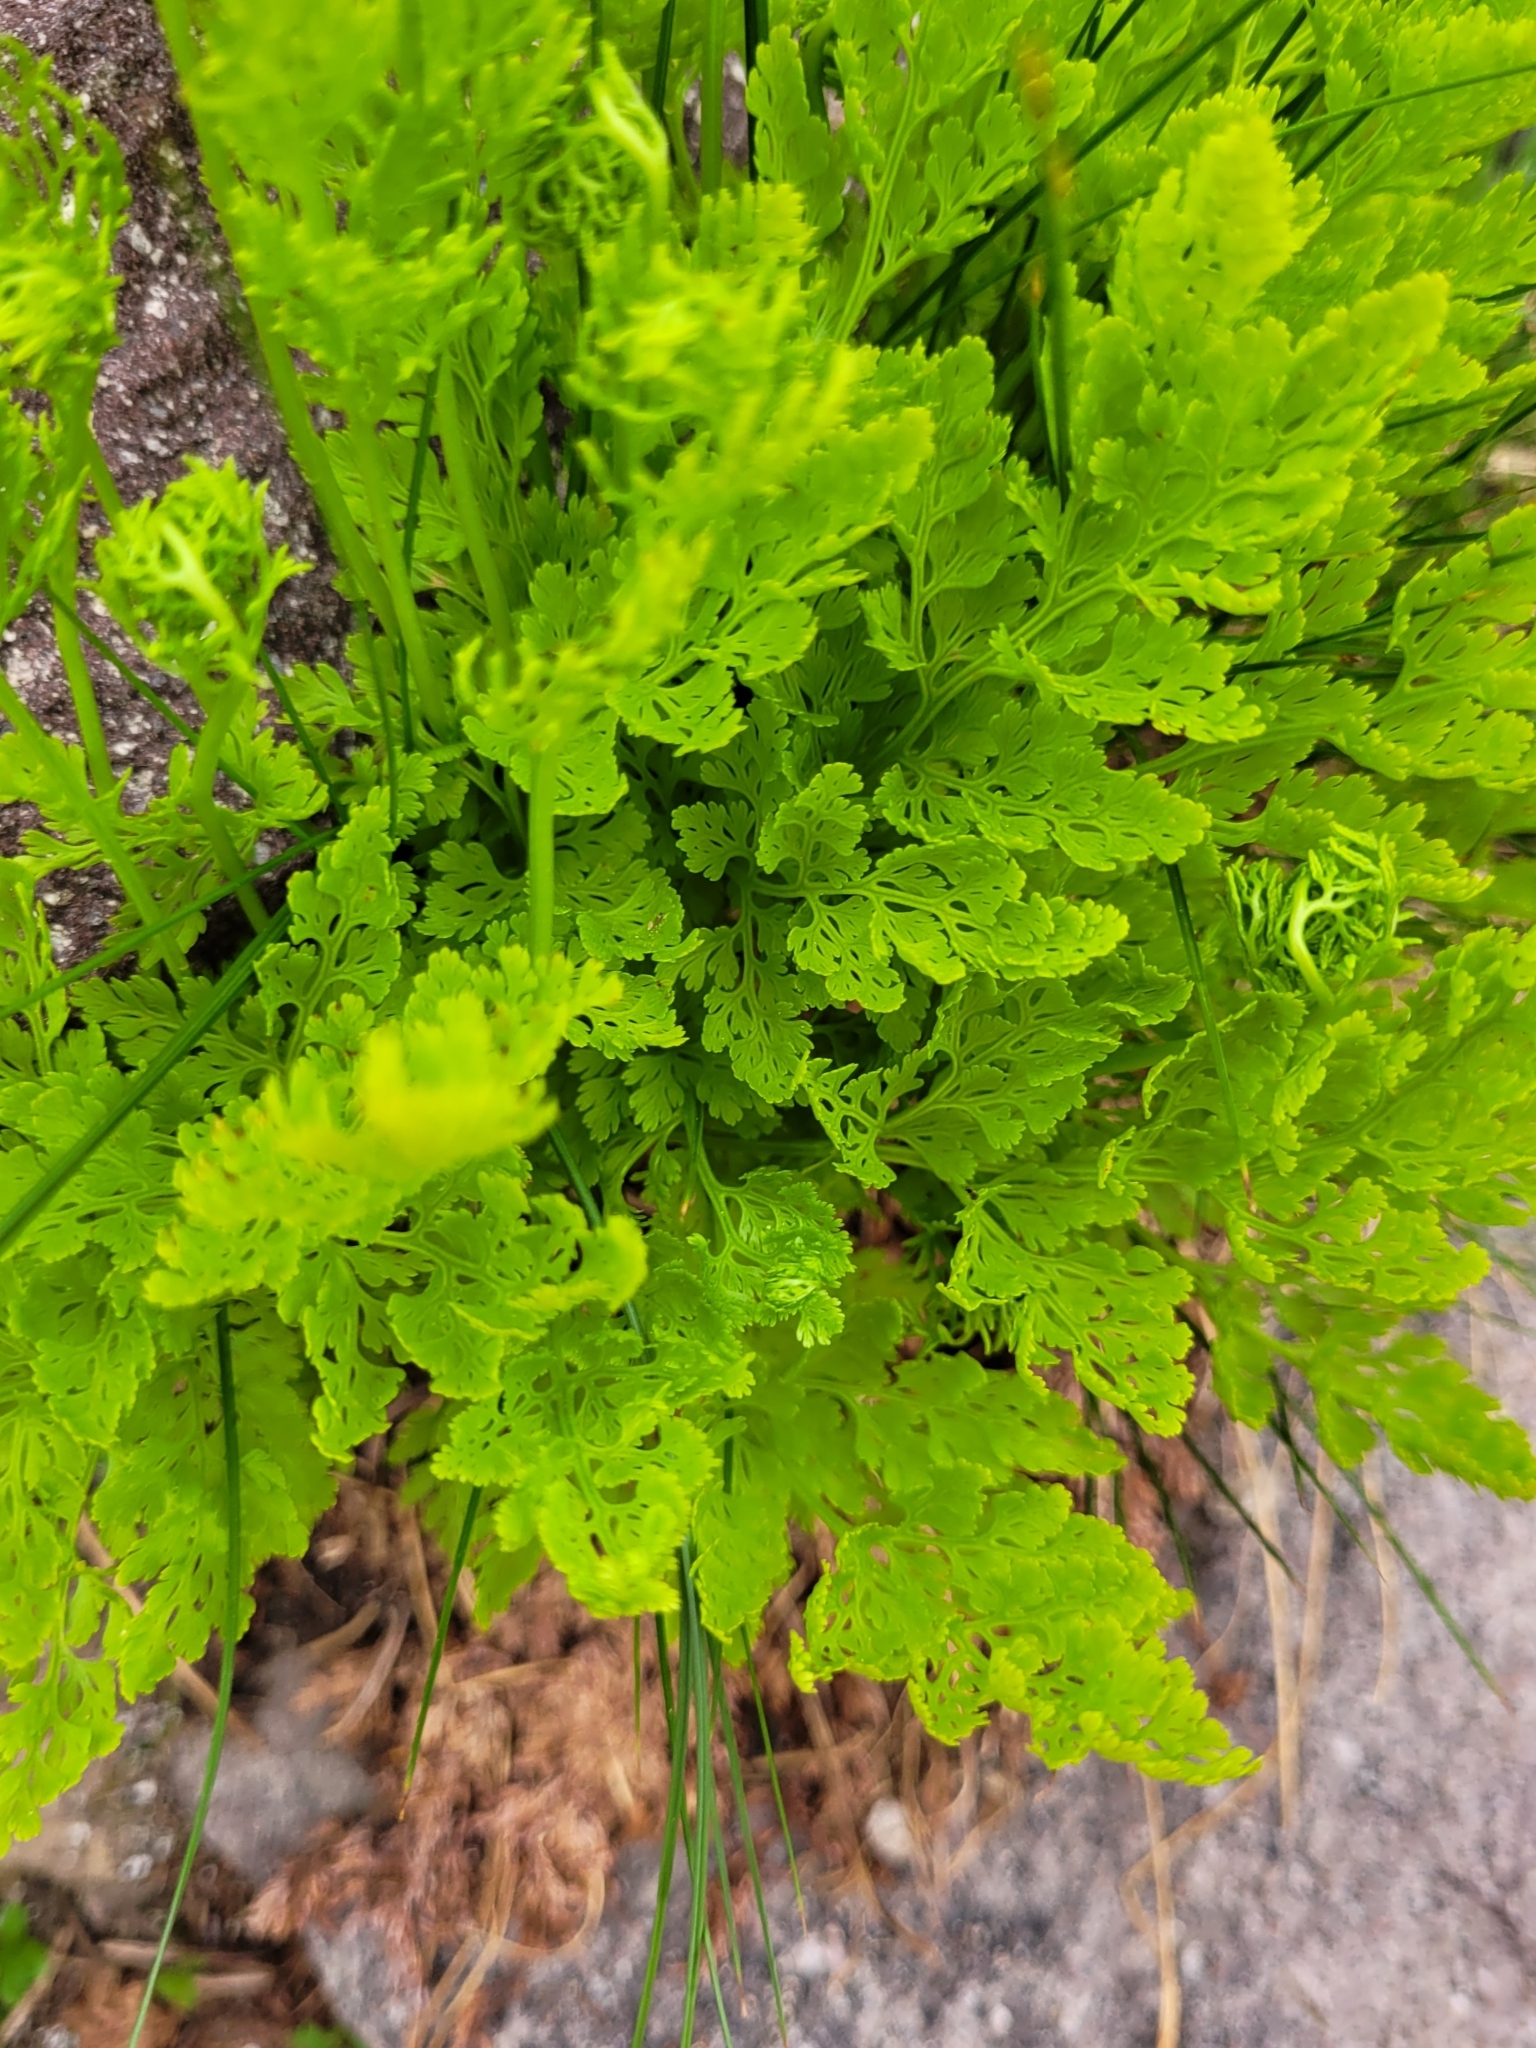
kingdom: Plantae
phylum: Tracheophyta
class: Polypodiopsida
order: Polypodiales
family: Pteridaceae
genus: Cryptogramma
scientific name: Cryptogramma crispa
